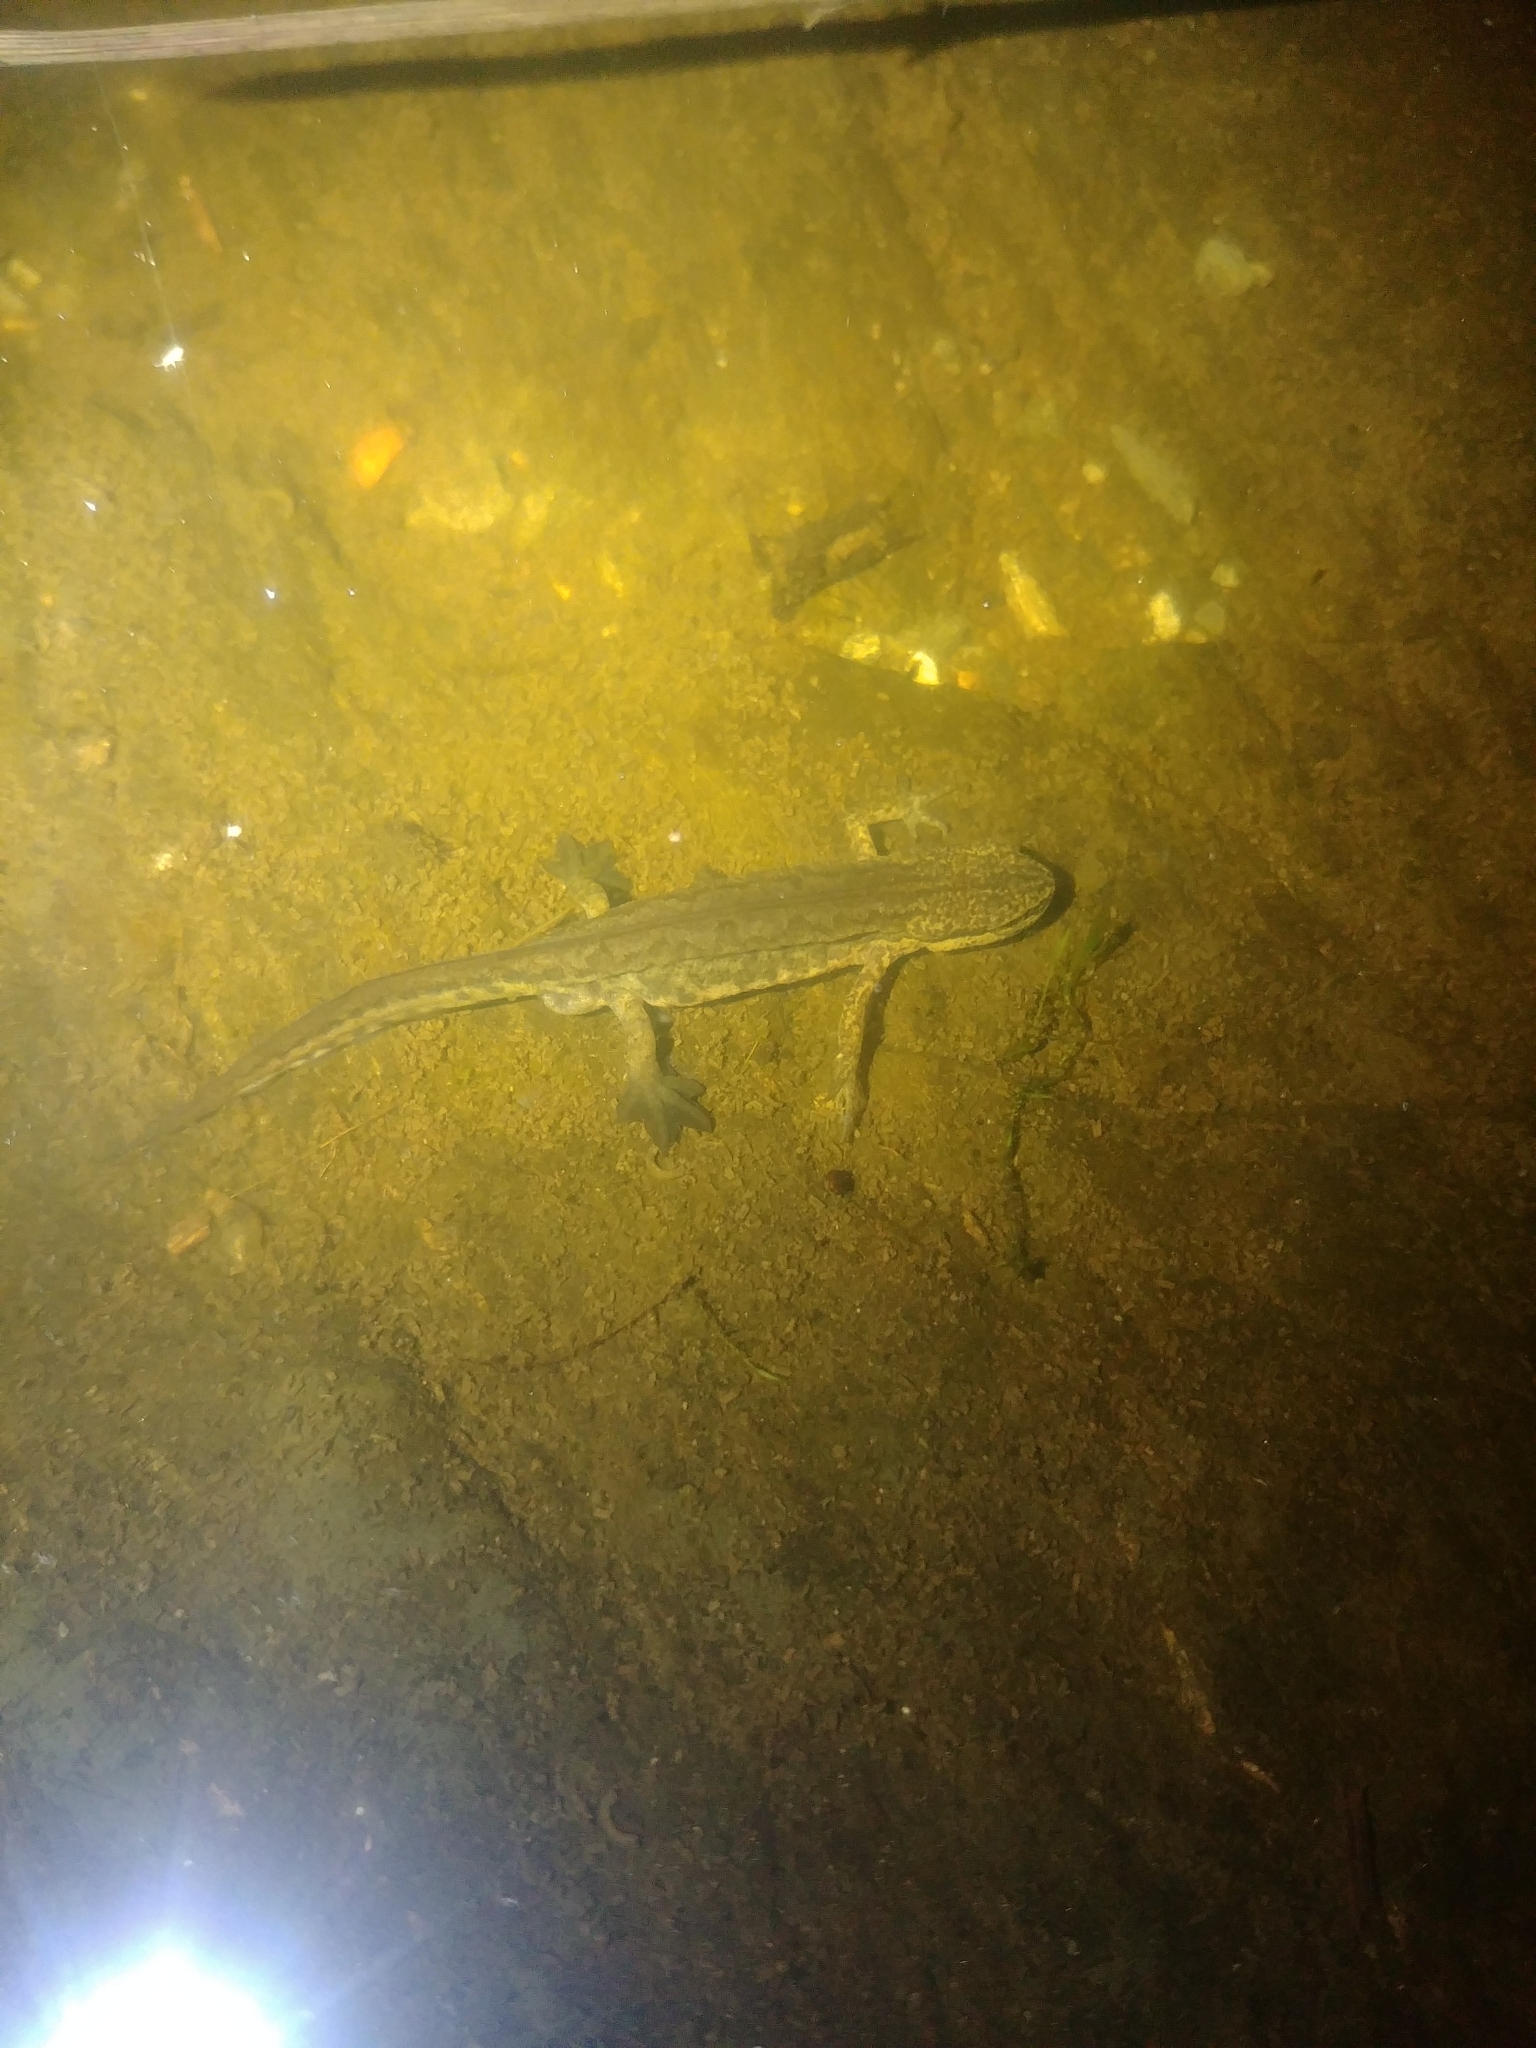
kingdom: Animalia
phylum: Chordata
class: Amphibia
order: Caudata
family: Salamandridae
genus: Lissotriton
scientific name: Lissotriton helveticus
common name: Palmate newt
